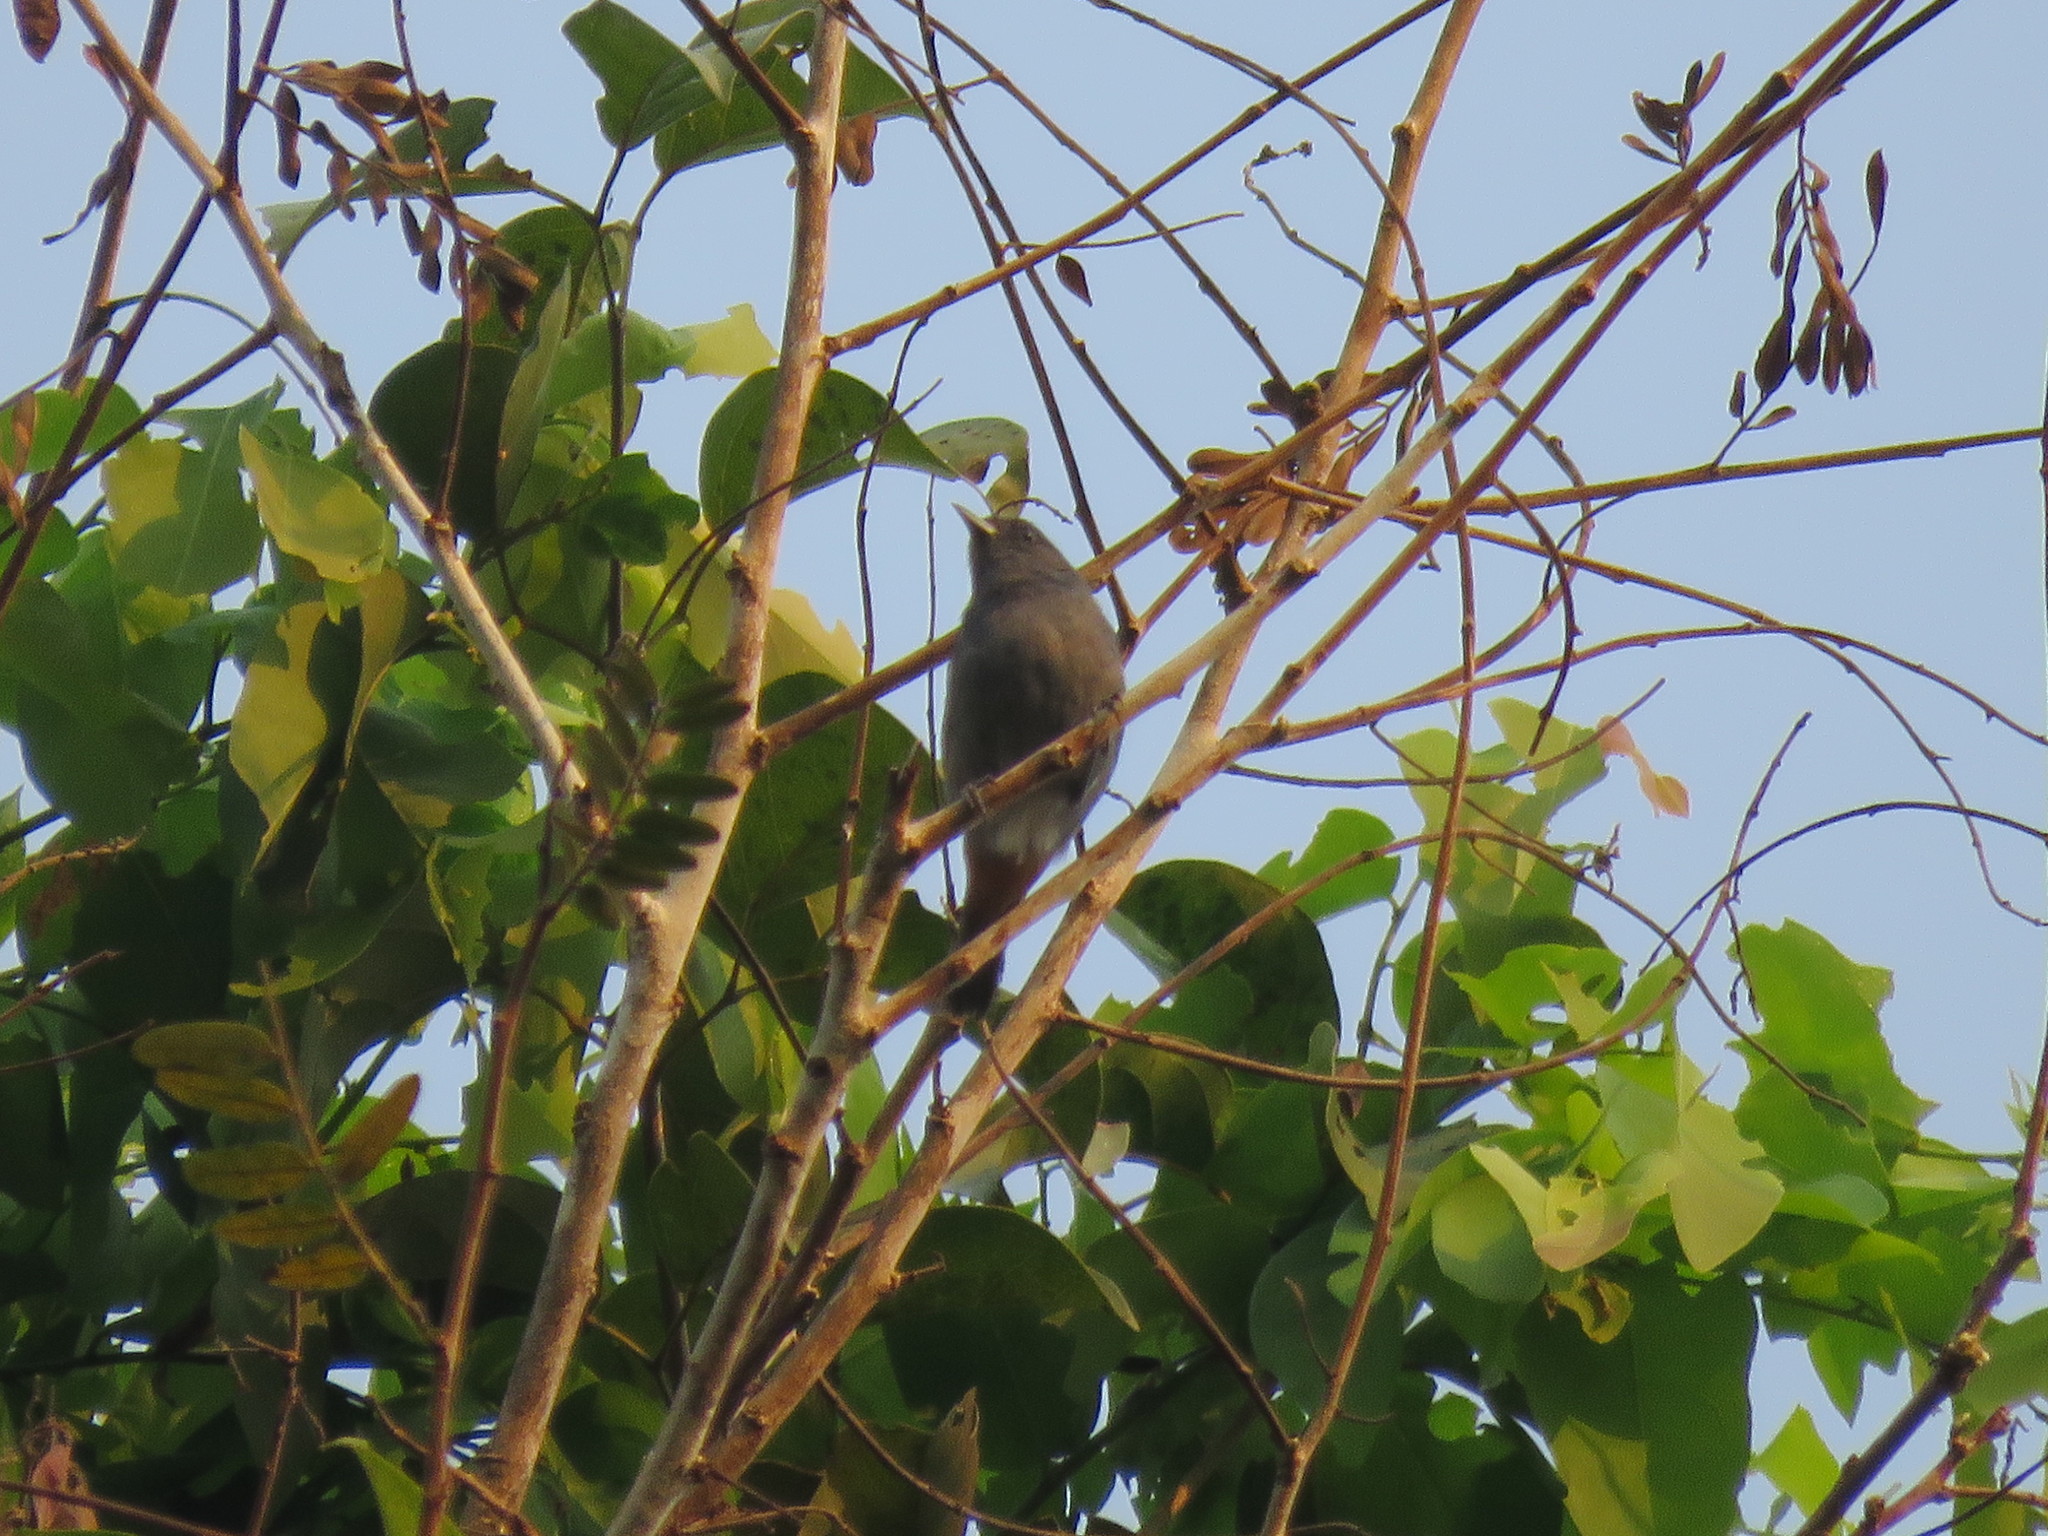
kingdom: Animalia
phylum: Chordata
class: Aves
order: Passeriformes
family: Thraupidae
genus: Conirostrum
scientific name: Conirostrum speciosum
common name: Chestnut-vented conebill
